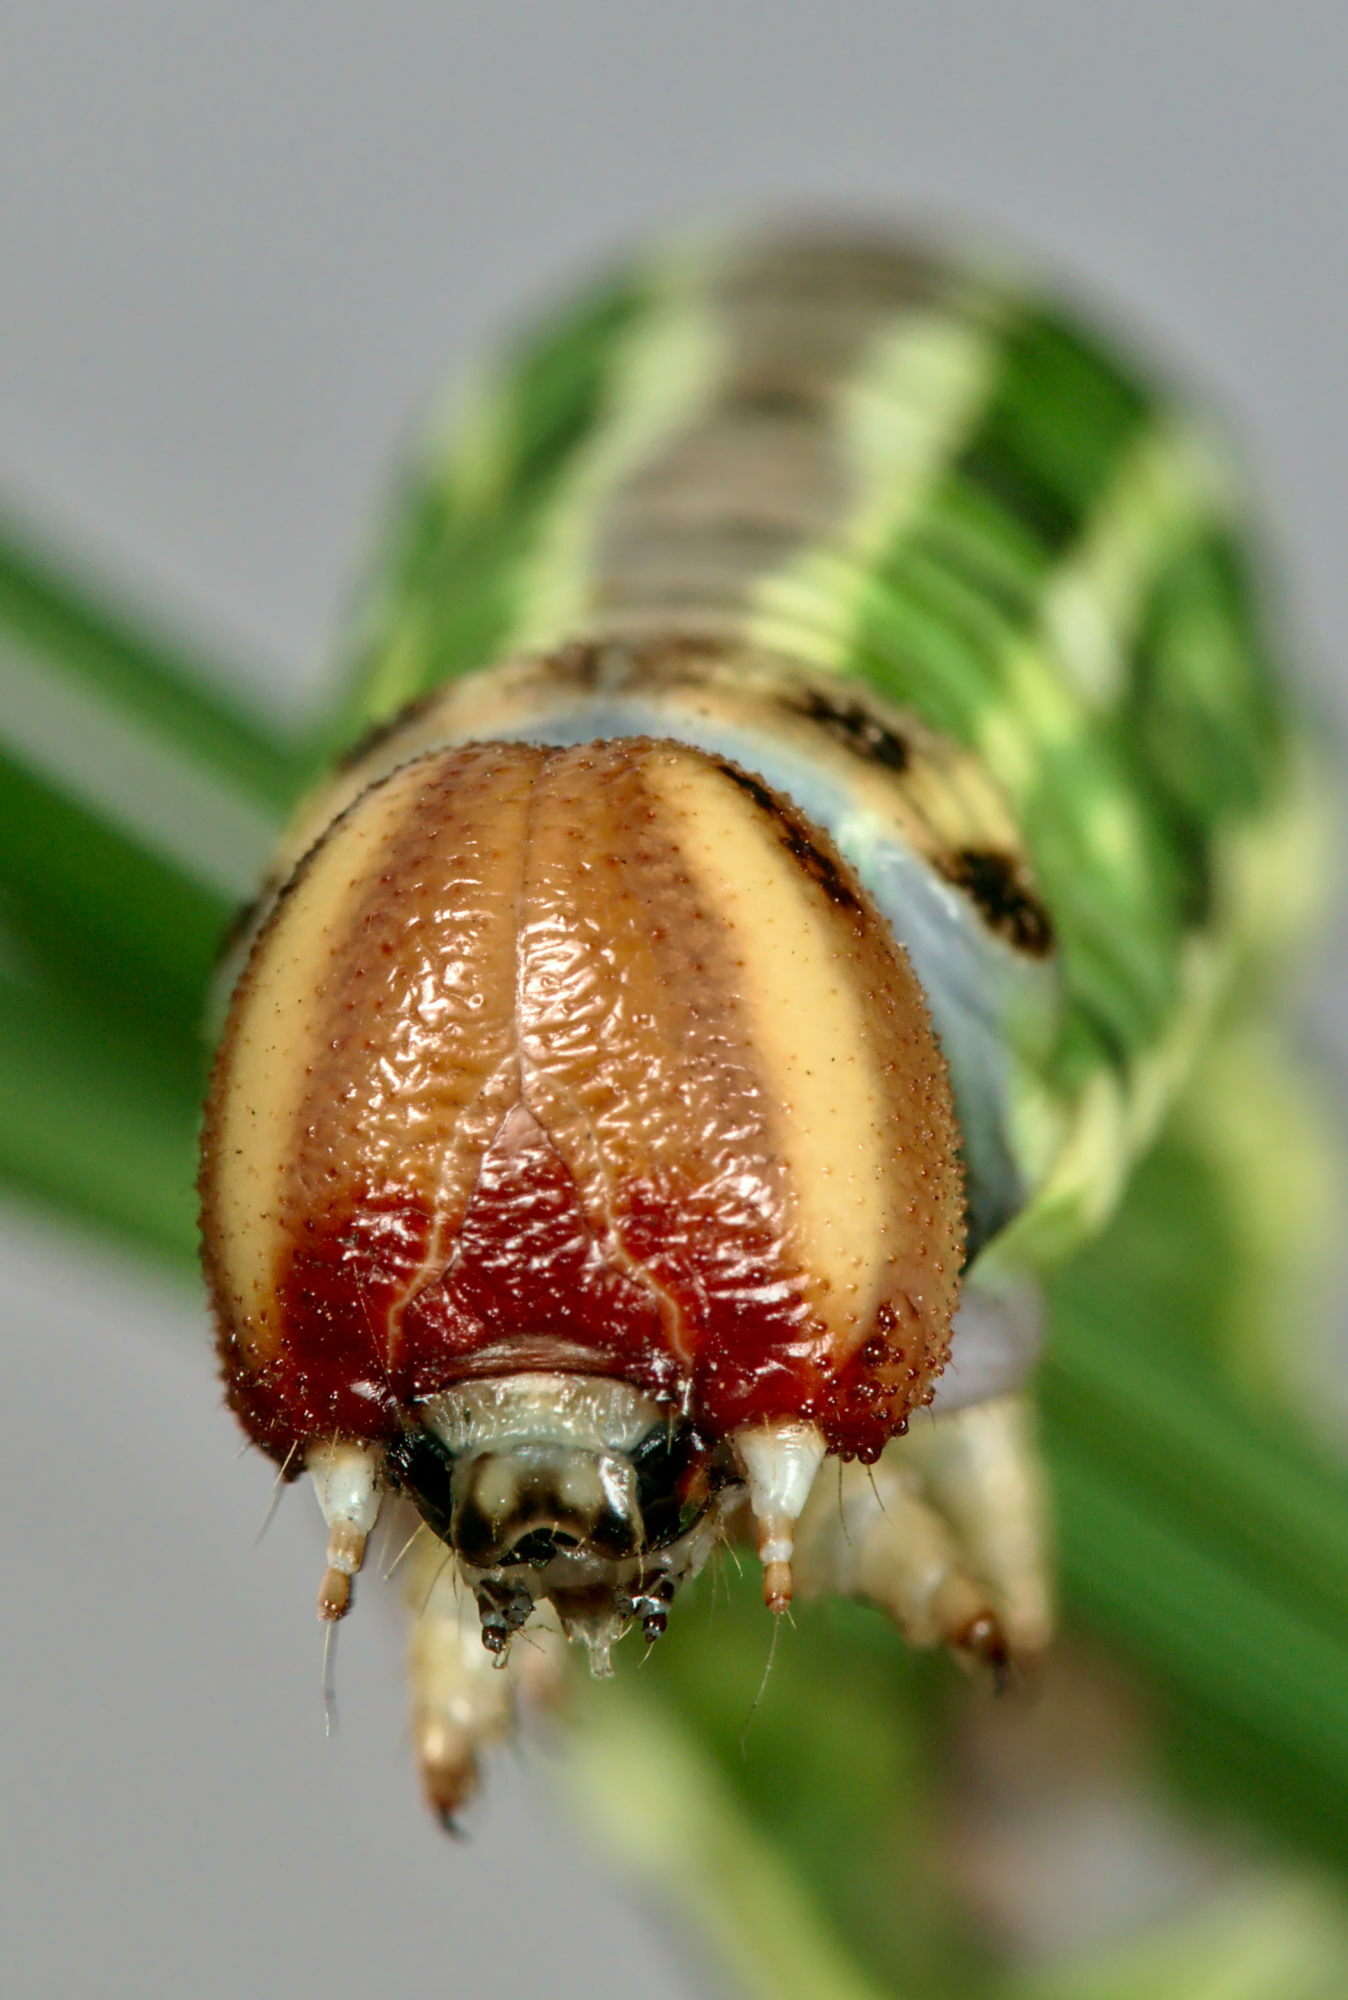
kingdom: Animalia
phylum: Arthropoda
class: Insecta
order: Lepidoptera
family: Sphingidae
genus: Sphinx
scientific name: Sphinx pinastri
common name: Pine hawk-moth
